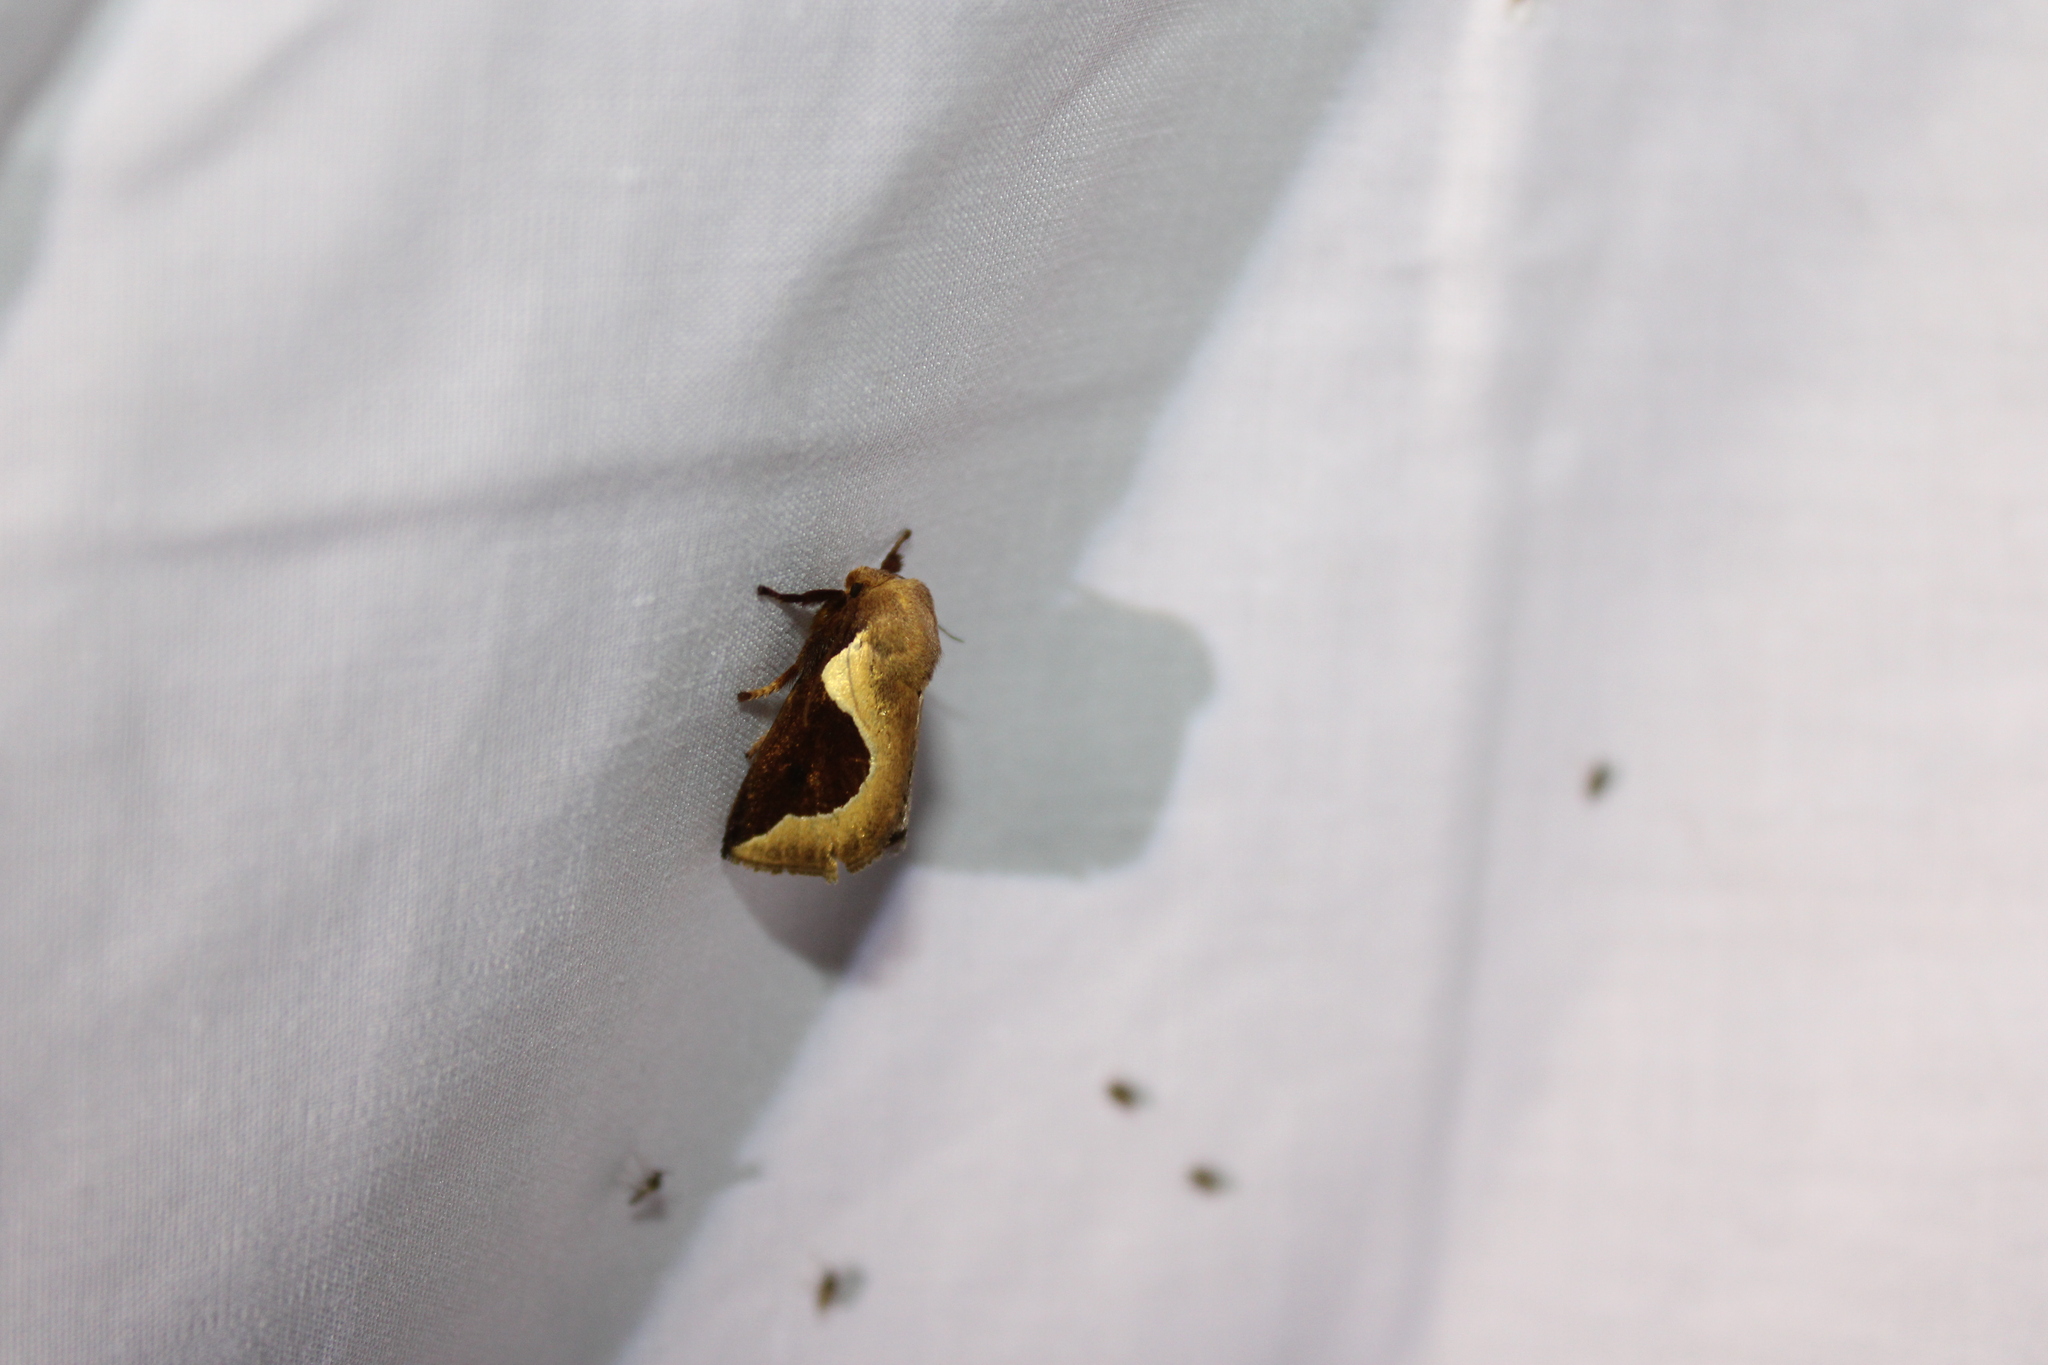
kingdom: Animalia
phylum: Arthropoda
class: Insecta
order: Lepidoptera
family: Limacodidae
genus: Prolimacodes
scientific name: Prolimacodes badia
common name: Skiff moth
